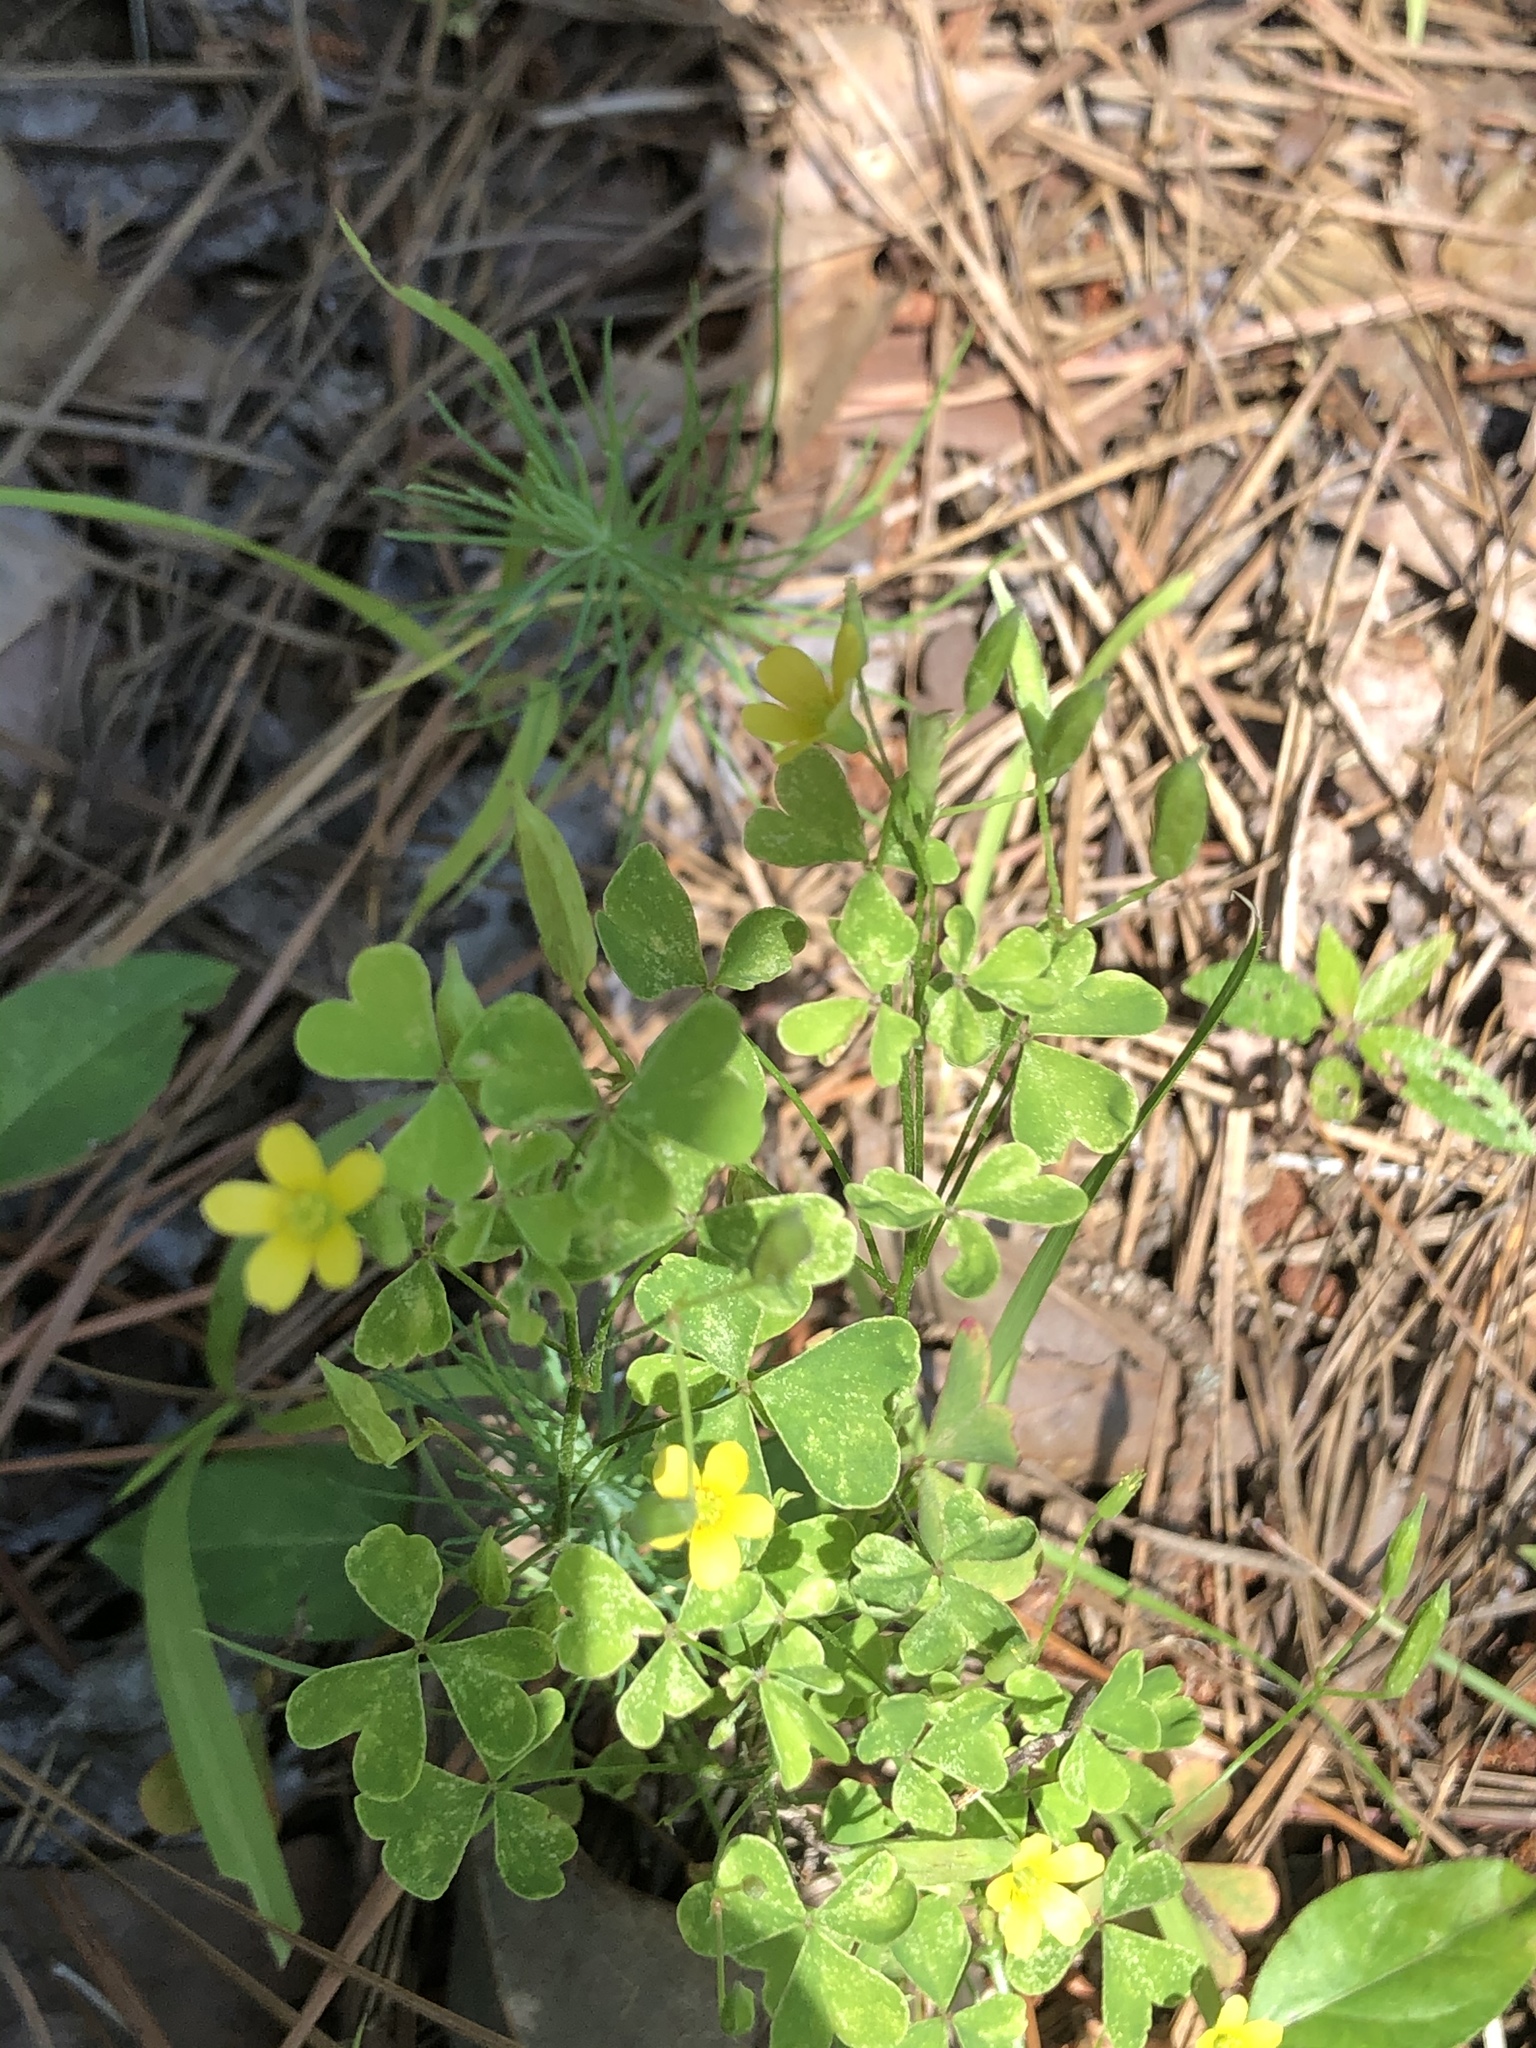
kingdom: Plantae
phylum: Tracheophyta
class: Magnoliopsida
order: Oxalidales
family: Oxalidaceae
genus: Oxalis
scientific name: Oxalis dillenii
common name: Sussex yellow-sorrel
